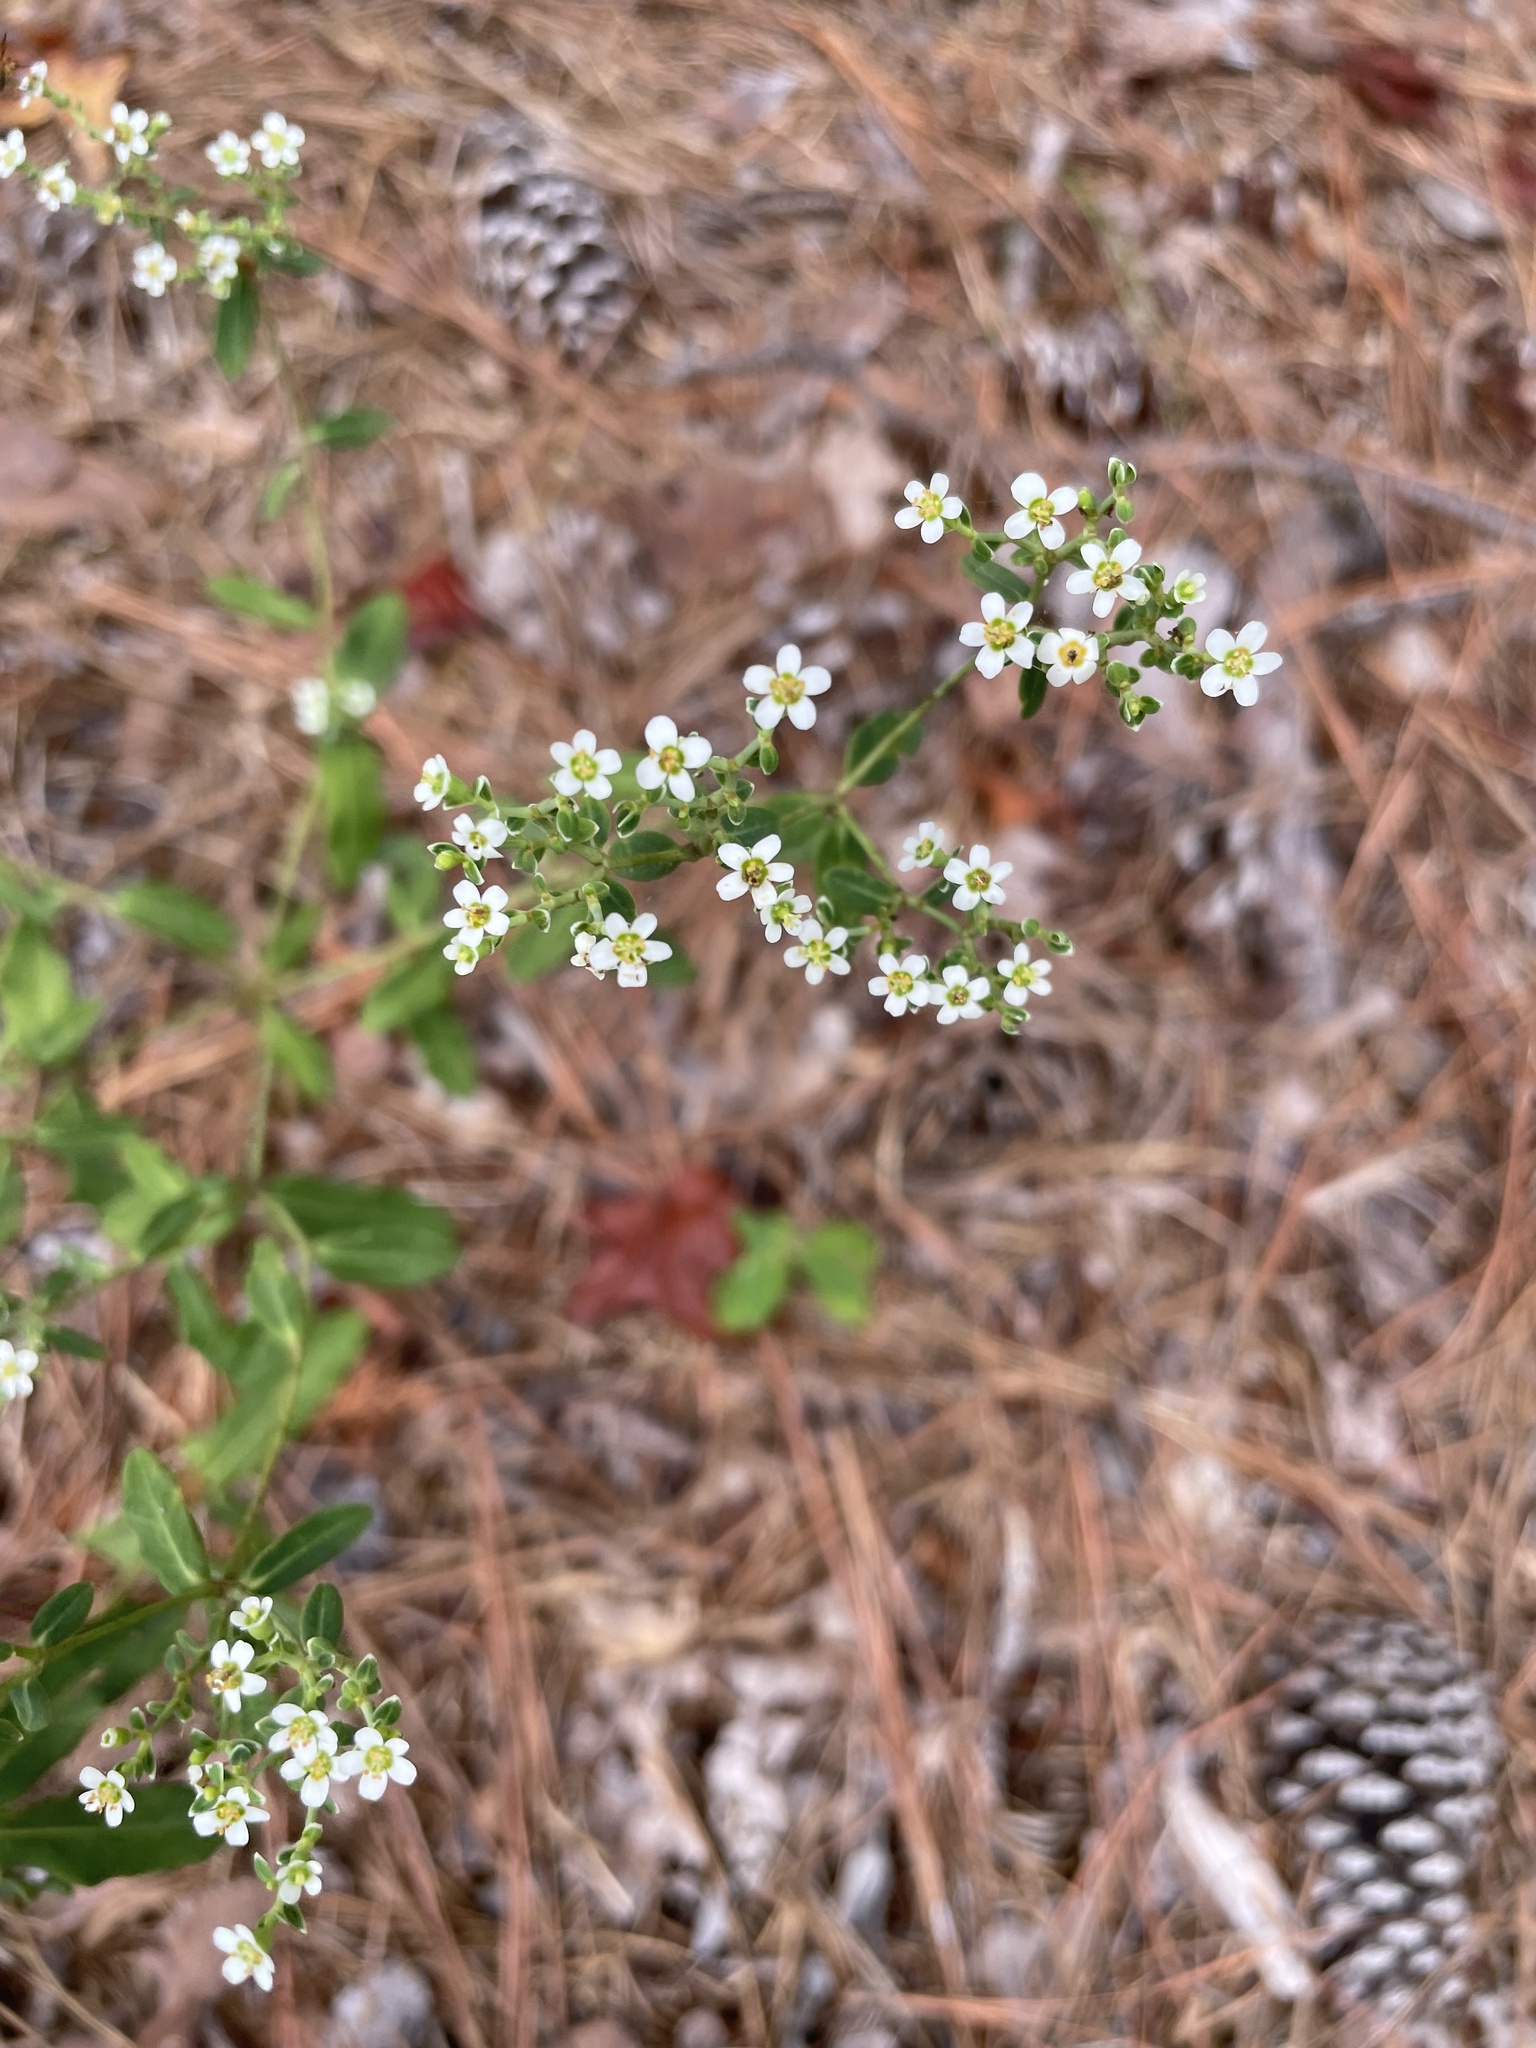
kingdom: Plantae
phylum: Tracheophyta
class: Magnoliopsida
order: Malpighiales
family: Euphorbiaceae
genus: Euphorbia
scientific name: Euphorbia corollata
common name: Flowering spurge
